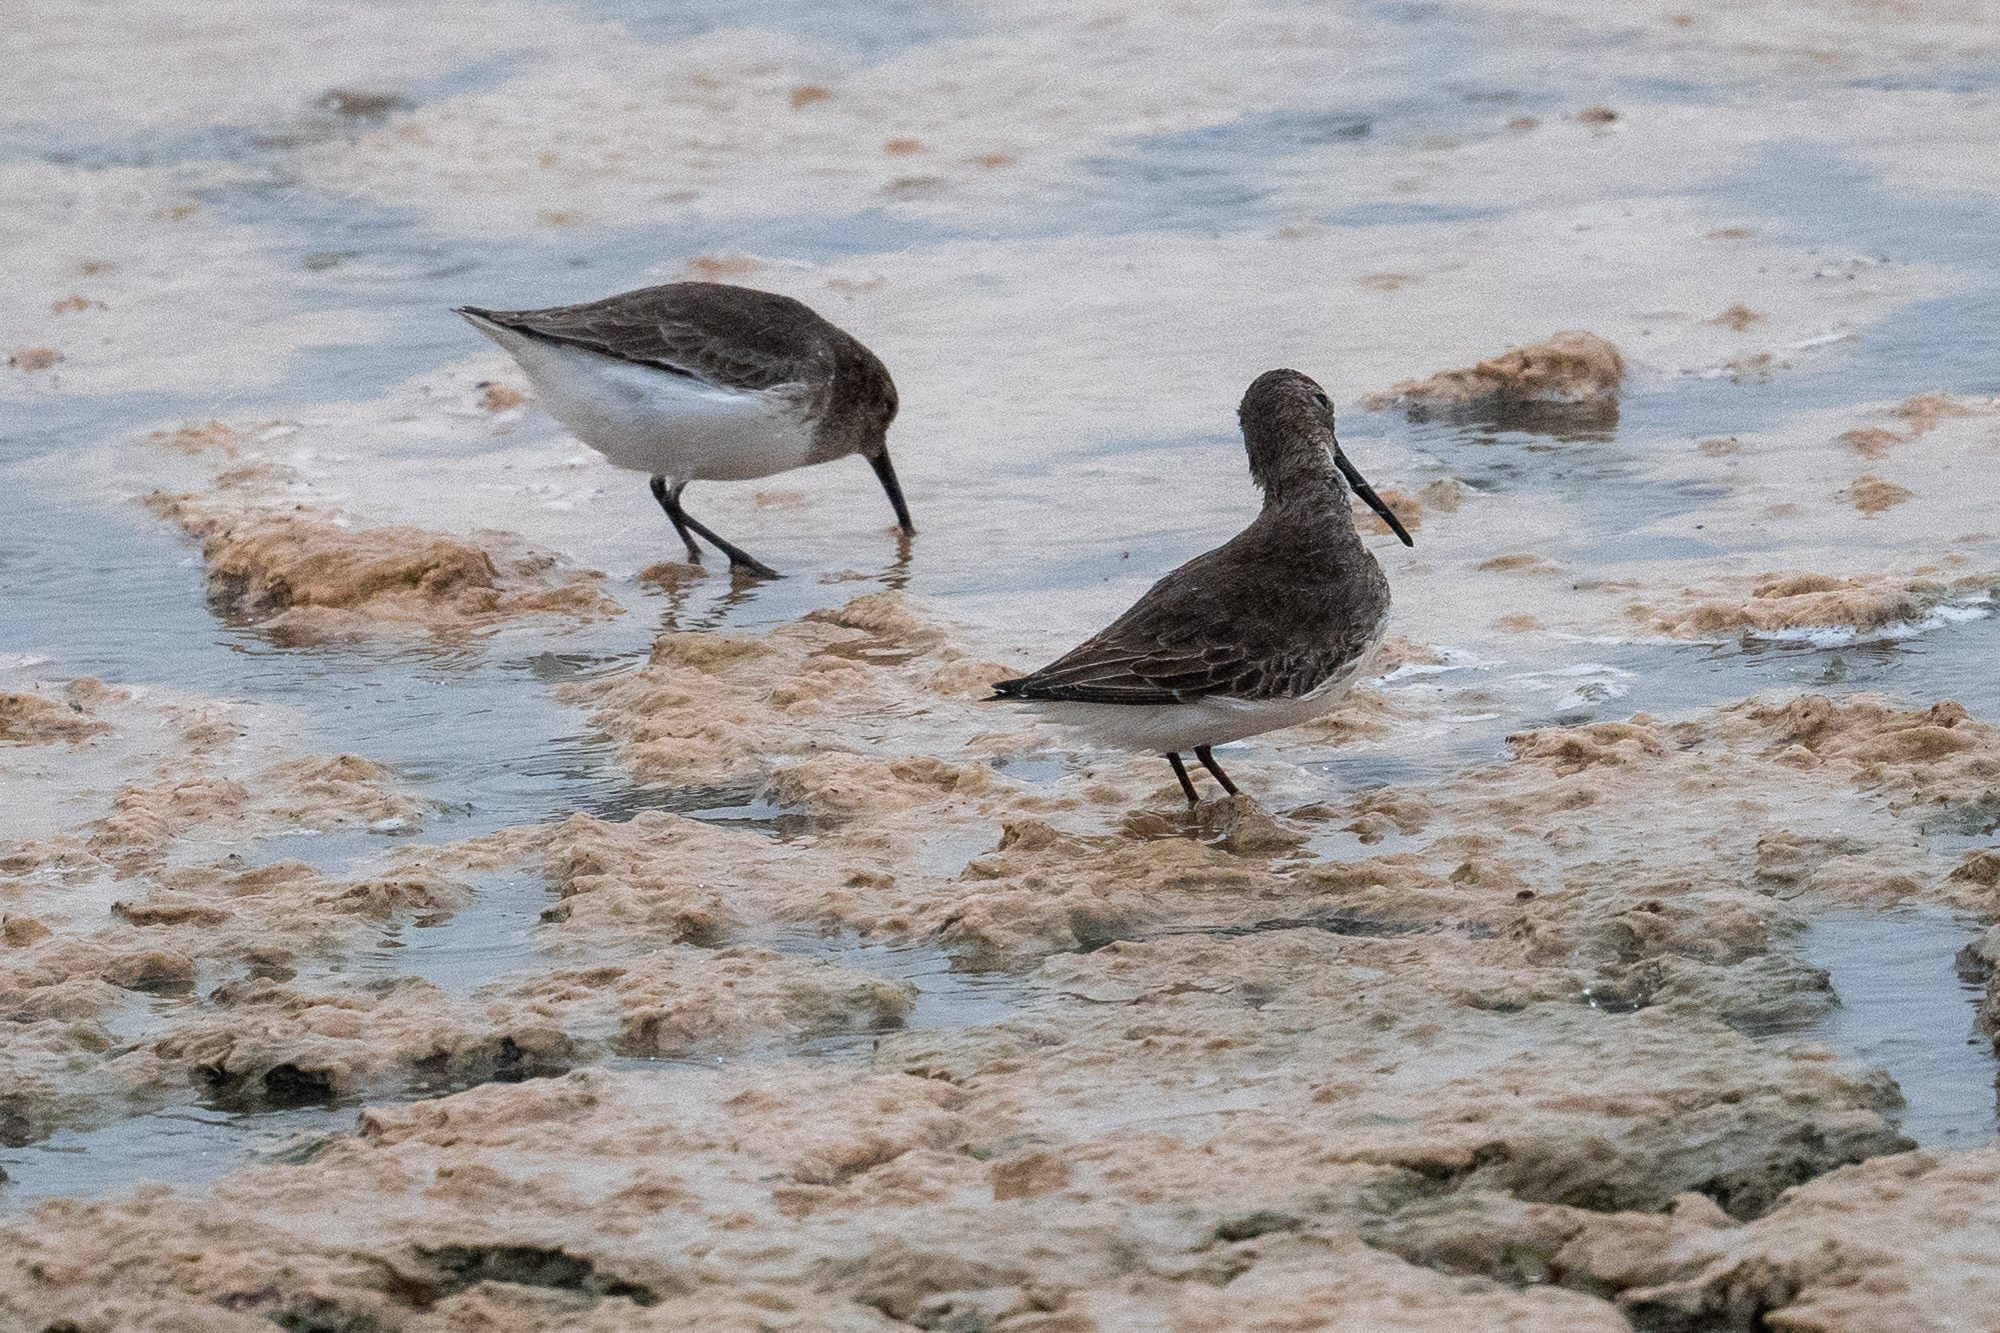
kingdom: Animalia
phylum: Chordata
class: Aves
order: Charadriiformes
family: Scolopacidae
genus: Calidris
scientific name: Calidris alpina
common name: Dunlin
